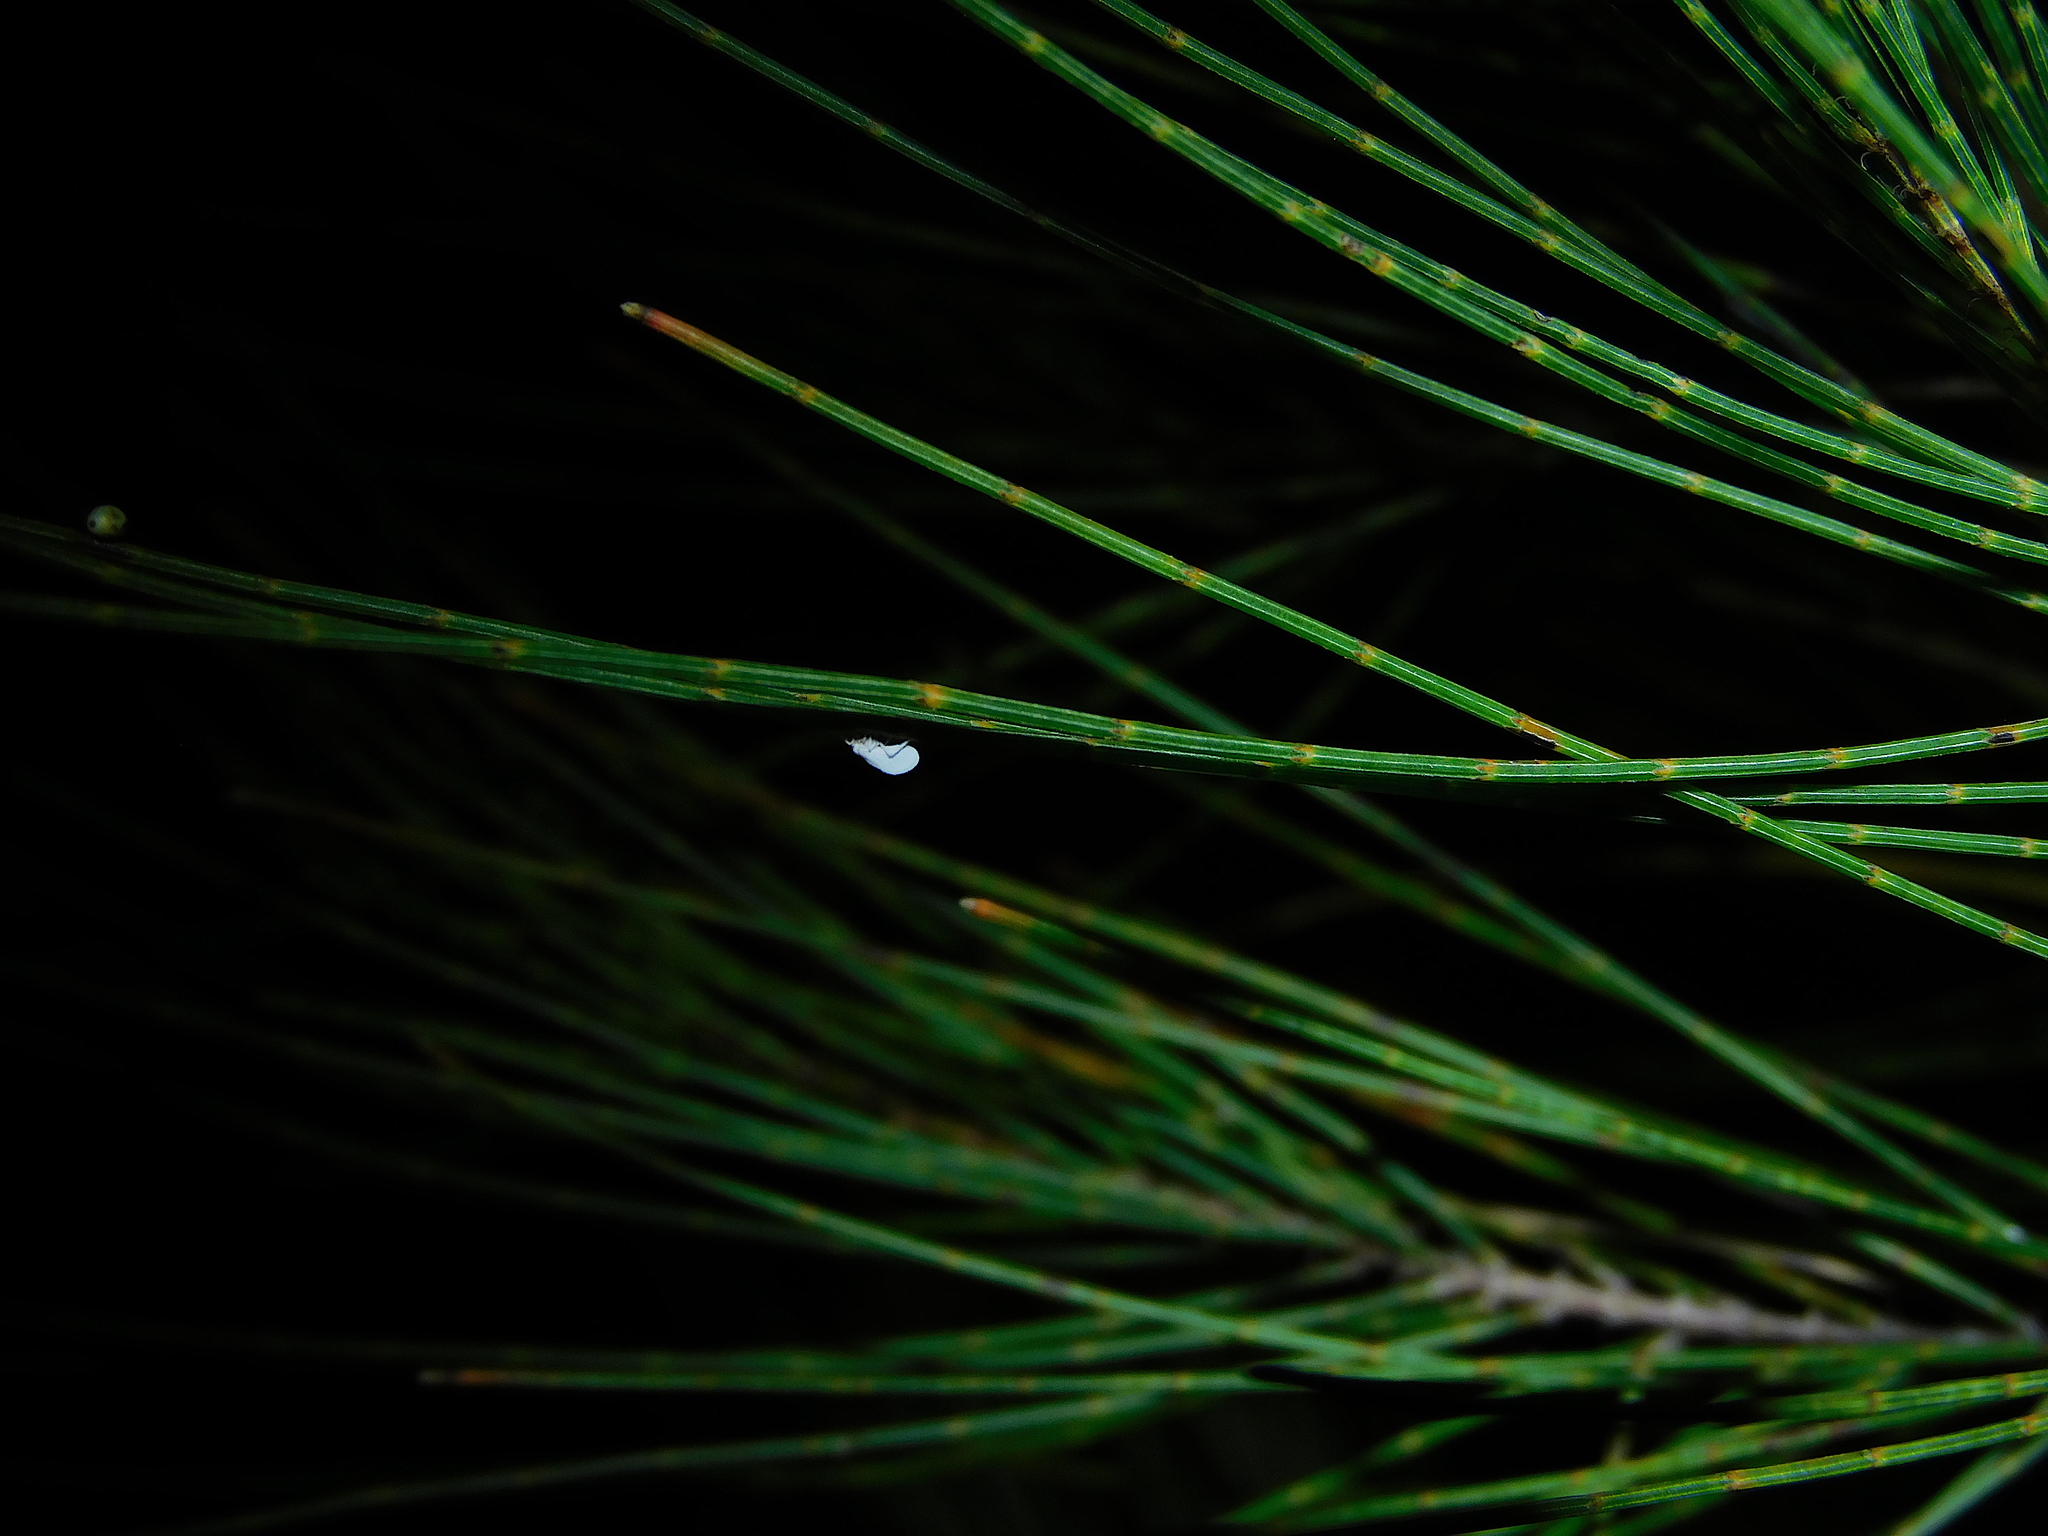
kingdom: Animalia
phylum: Arthropoda
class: Insecta
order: Neuroptera
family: Coniopterygidae
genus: Cryptoscenea
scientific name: Cryptoscenea australiensis
